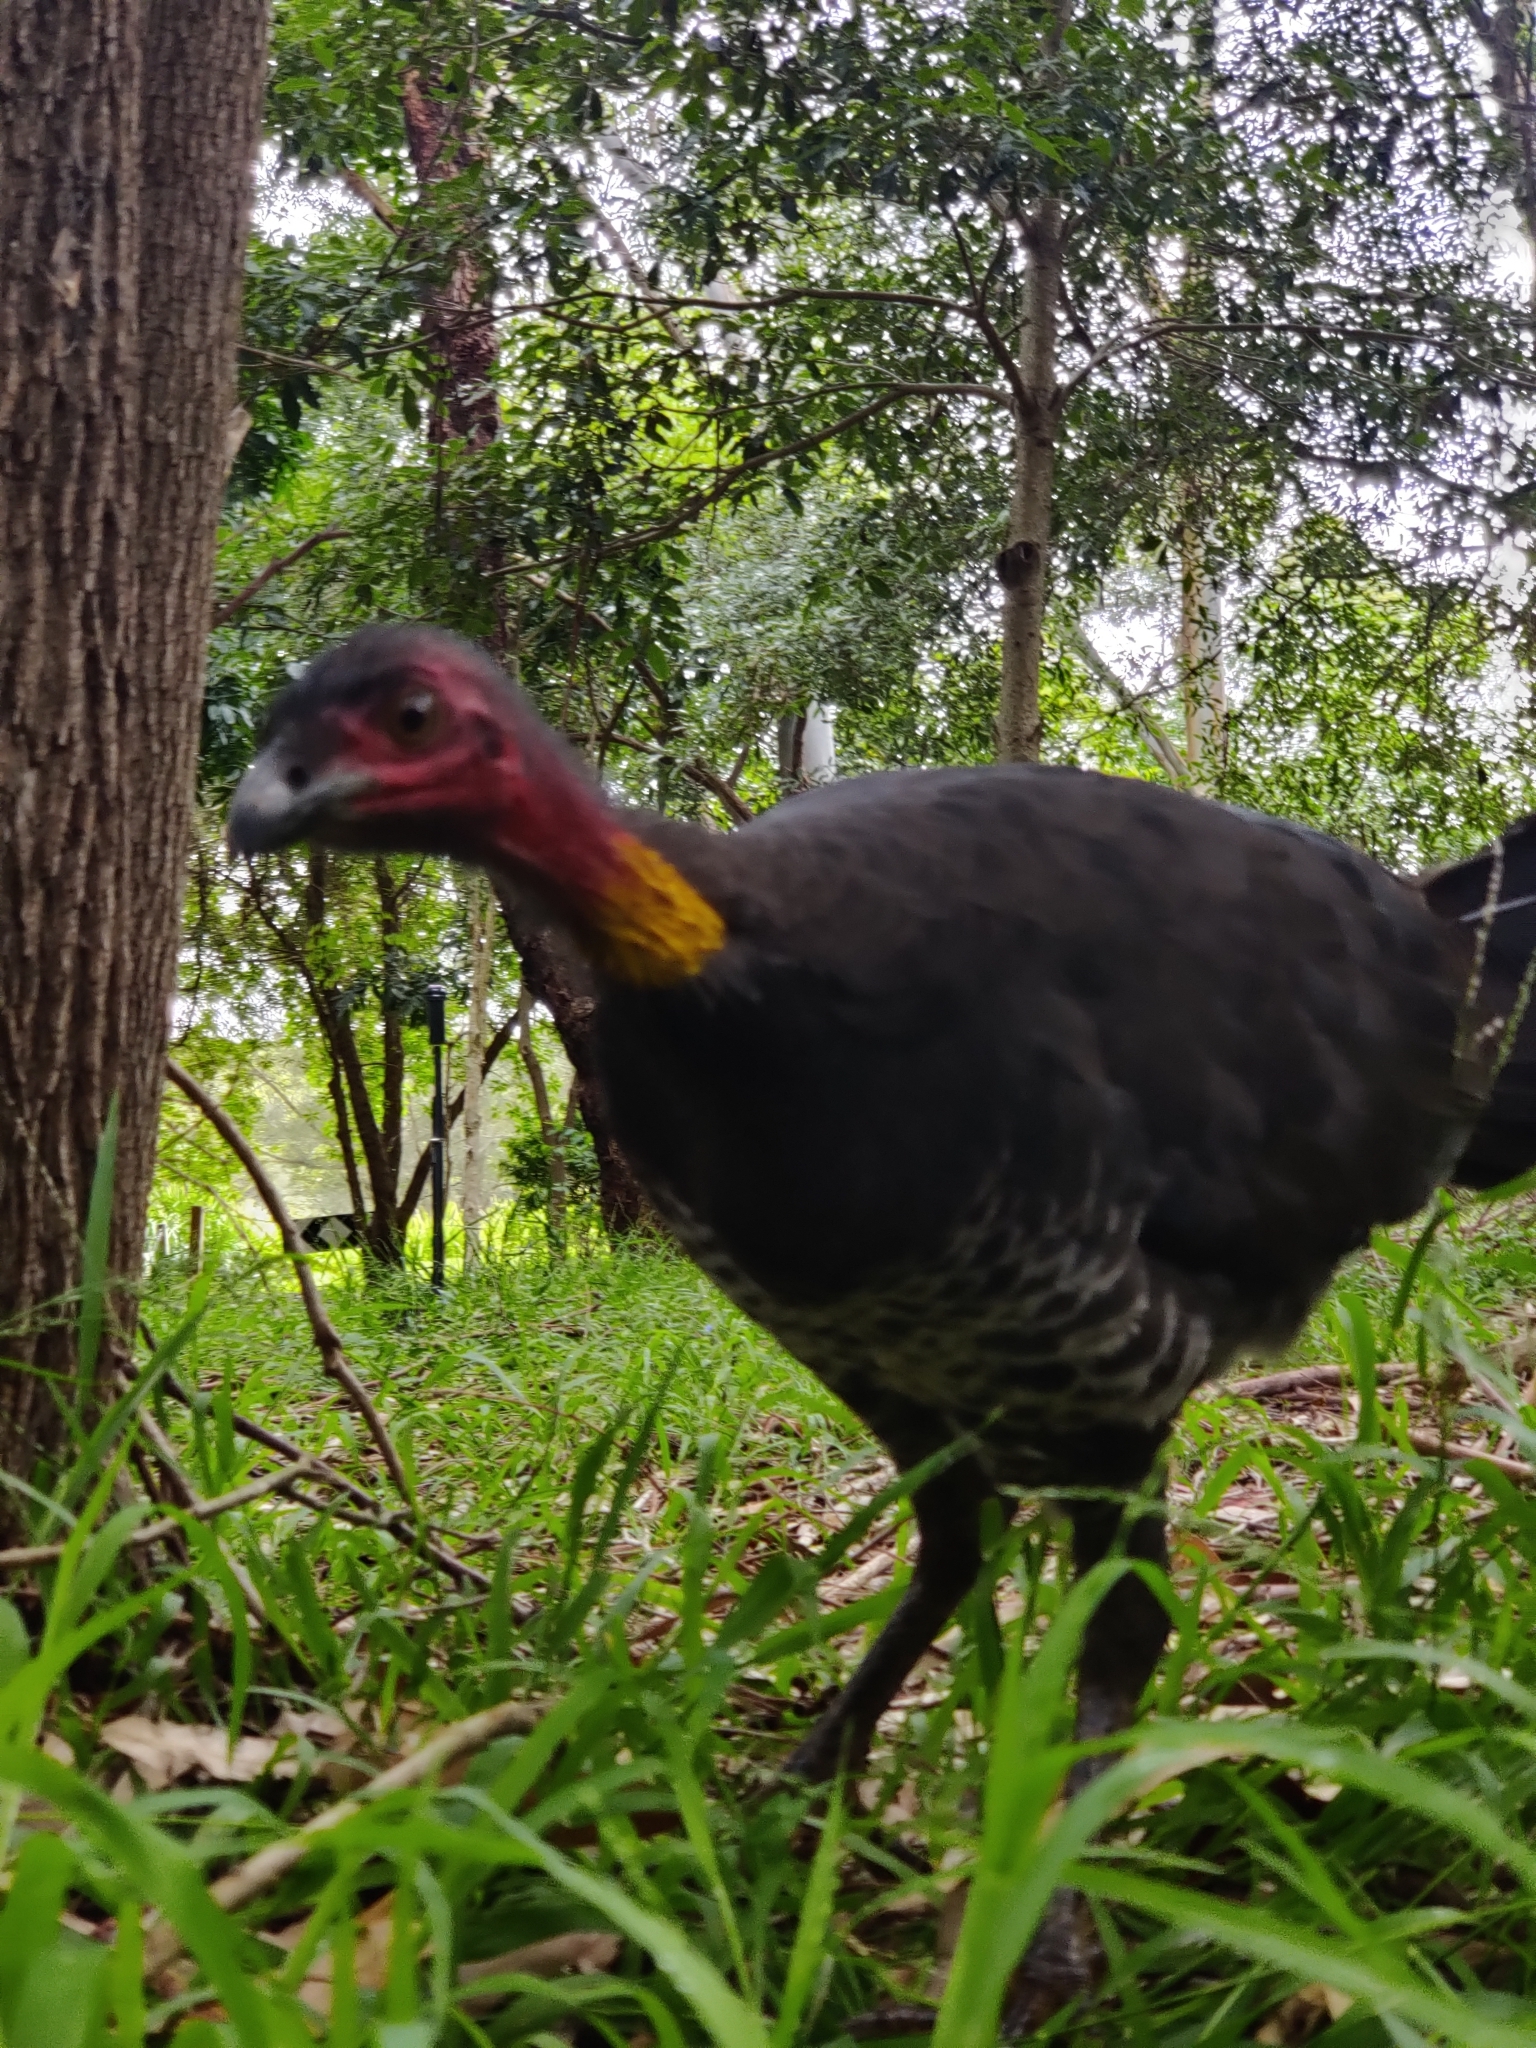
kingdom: Animalia
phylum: Chordata
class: Aves
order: Galliformes
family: Megapodiidae
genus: Alectura
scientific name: Alectura lathami
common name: Australian brushturkey
